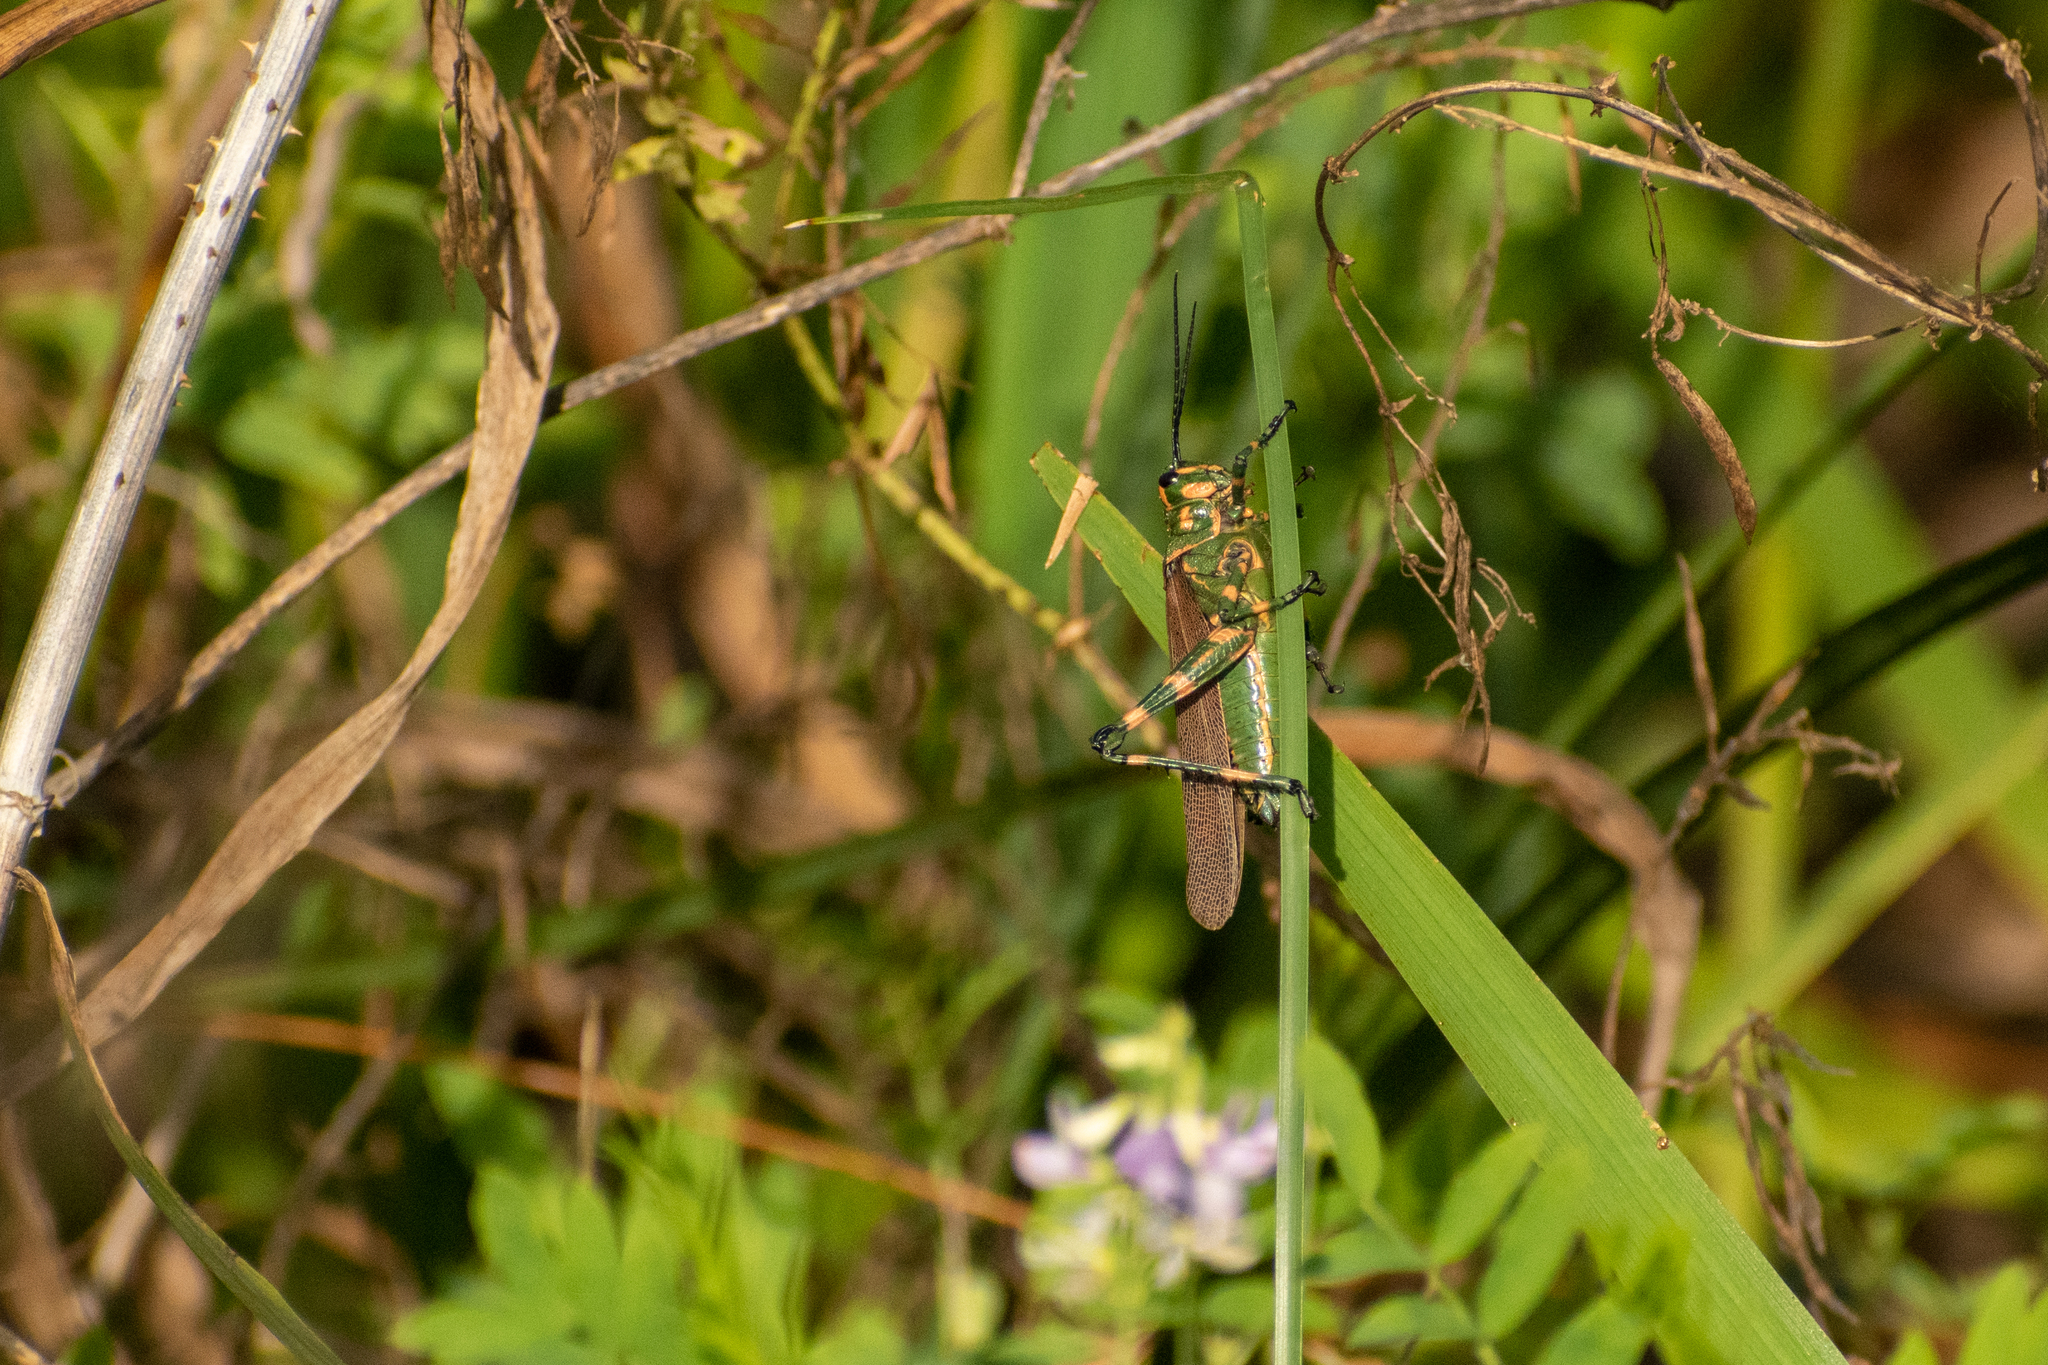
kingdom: Animalia
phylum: Arthropoda
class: Insecta
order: Orthoptera
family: Romaleidae
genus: Chromacris
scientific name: Chromacris speciosa
